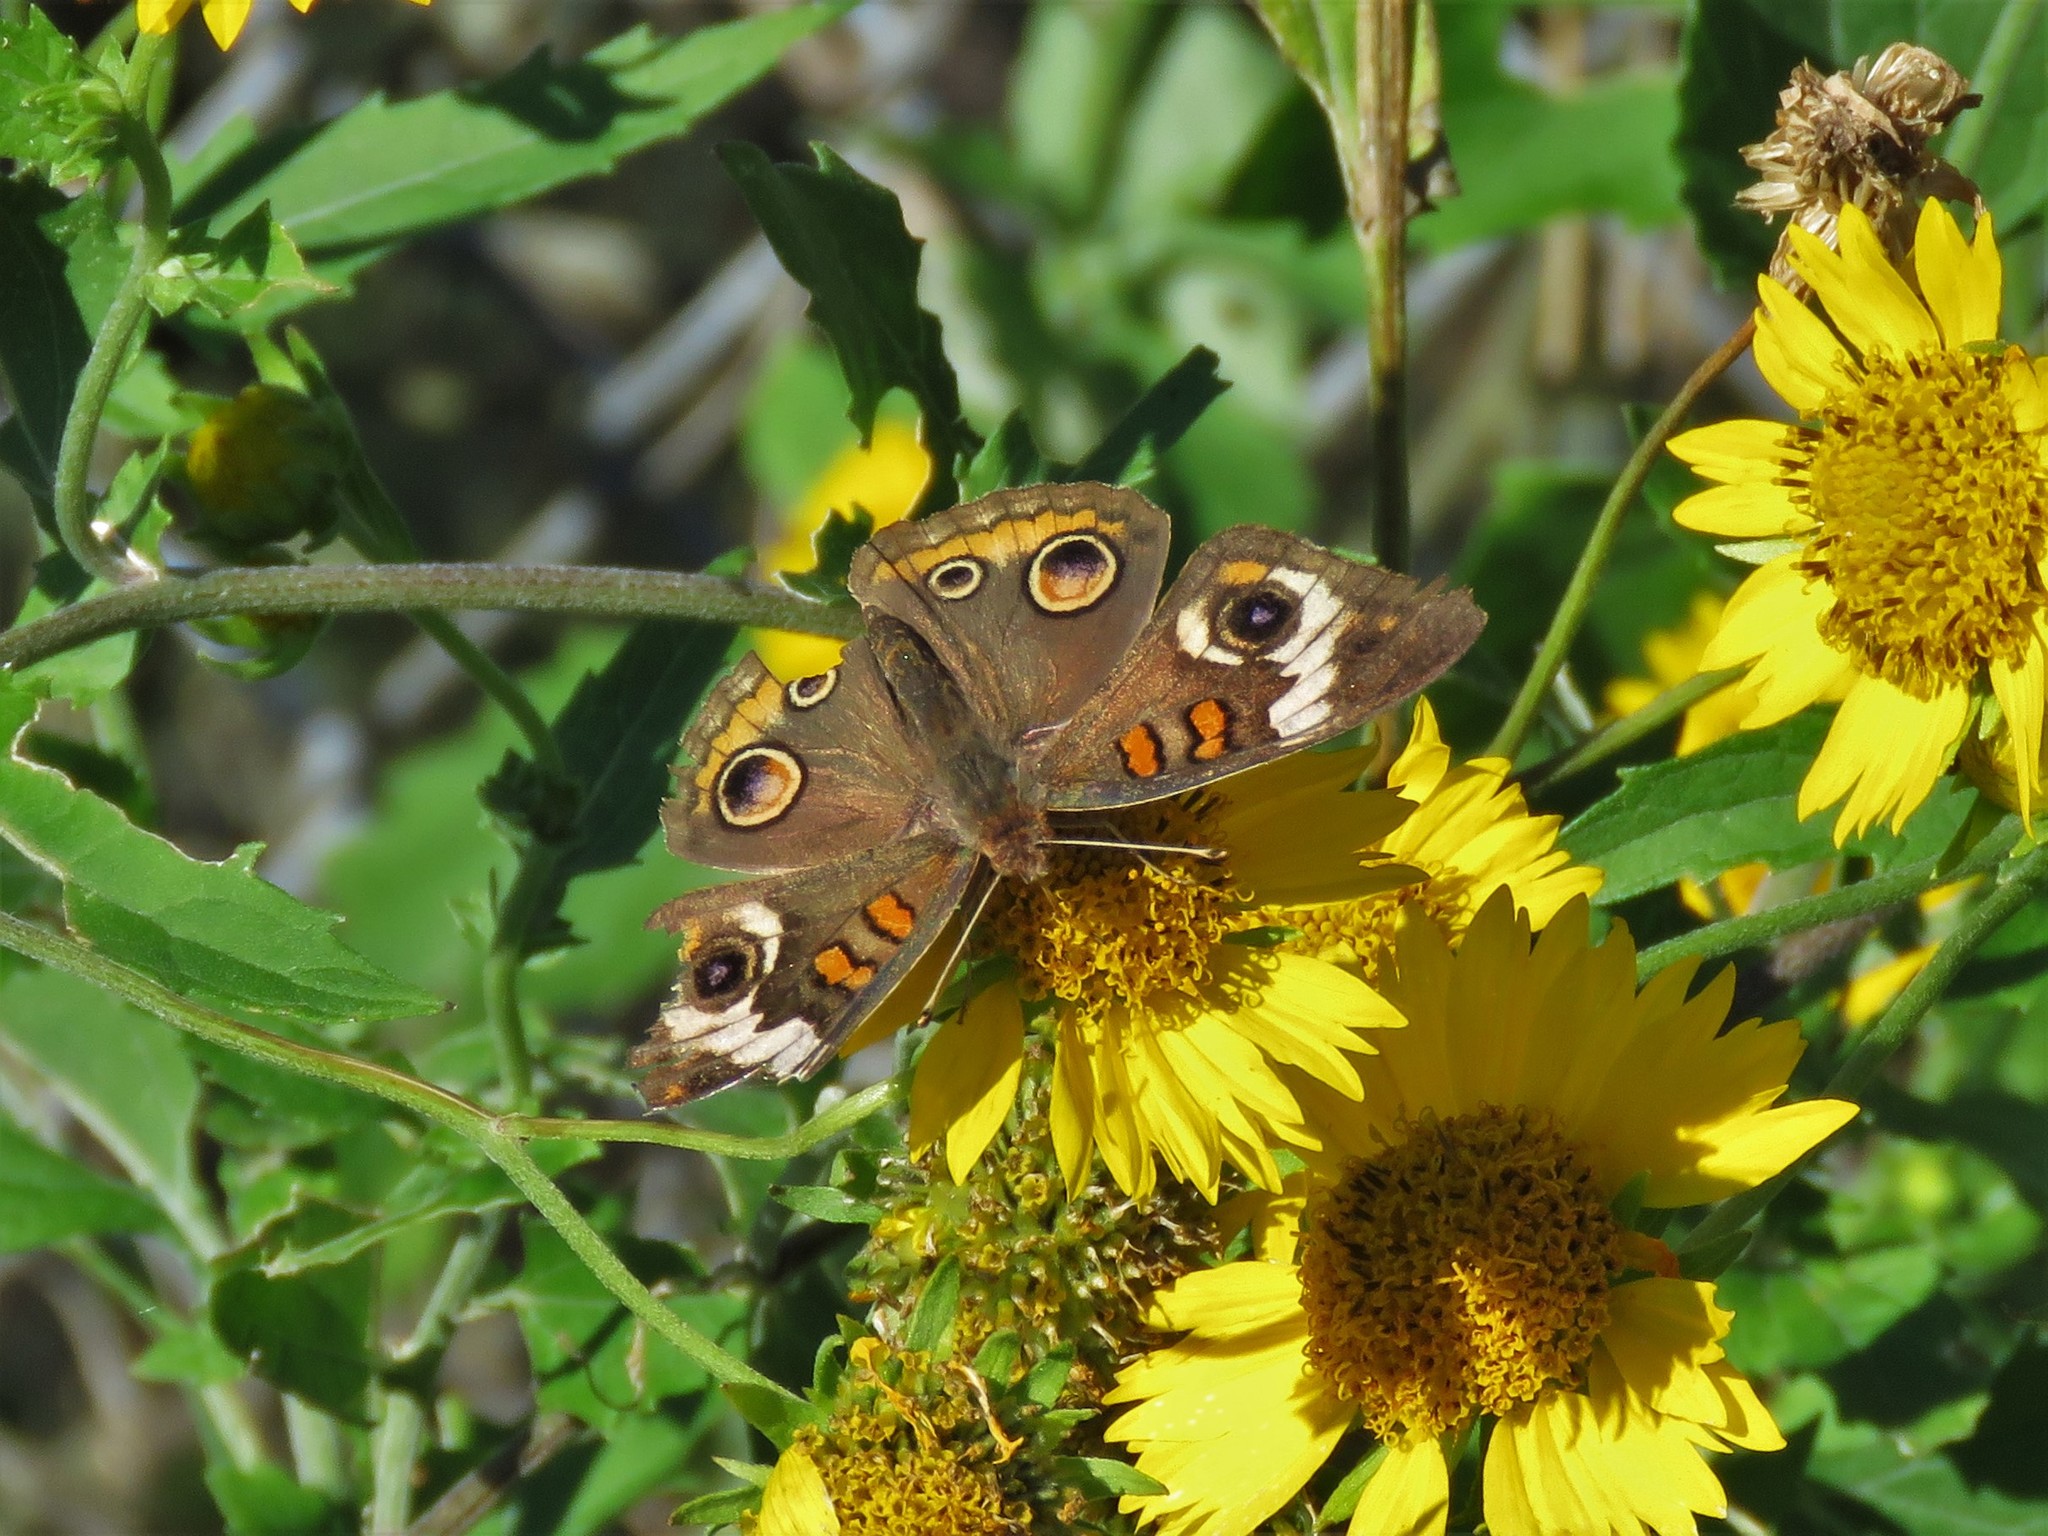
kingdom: Animalia
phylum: Arthropoda
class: Insecta
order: Lepidoptera
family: Nymphalidae
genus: Junonia
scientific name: Junonia coenia
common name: Common buckeye
